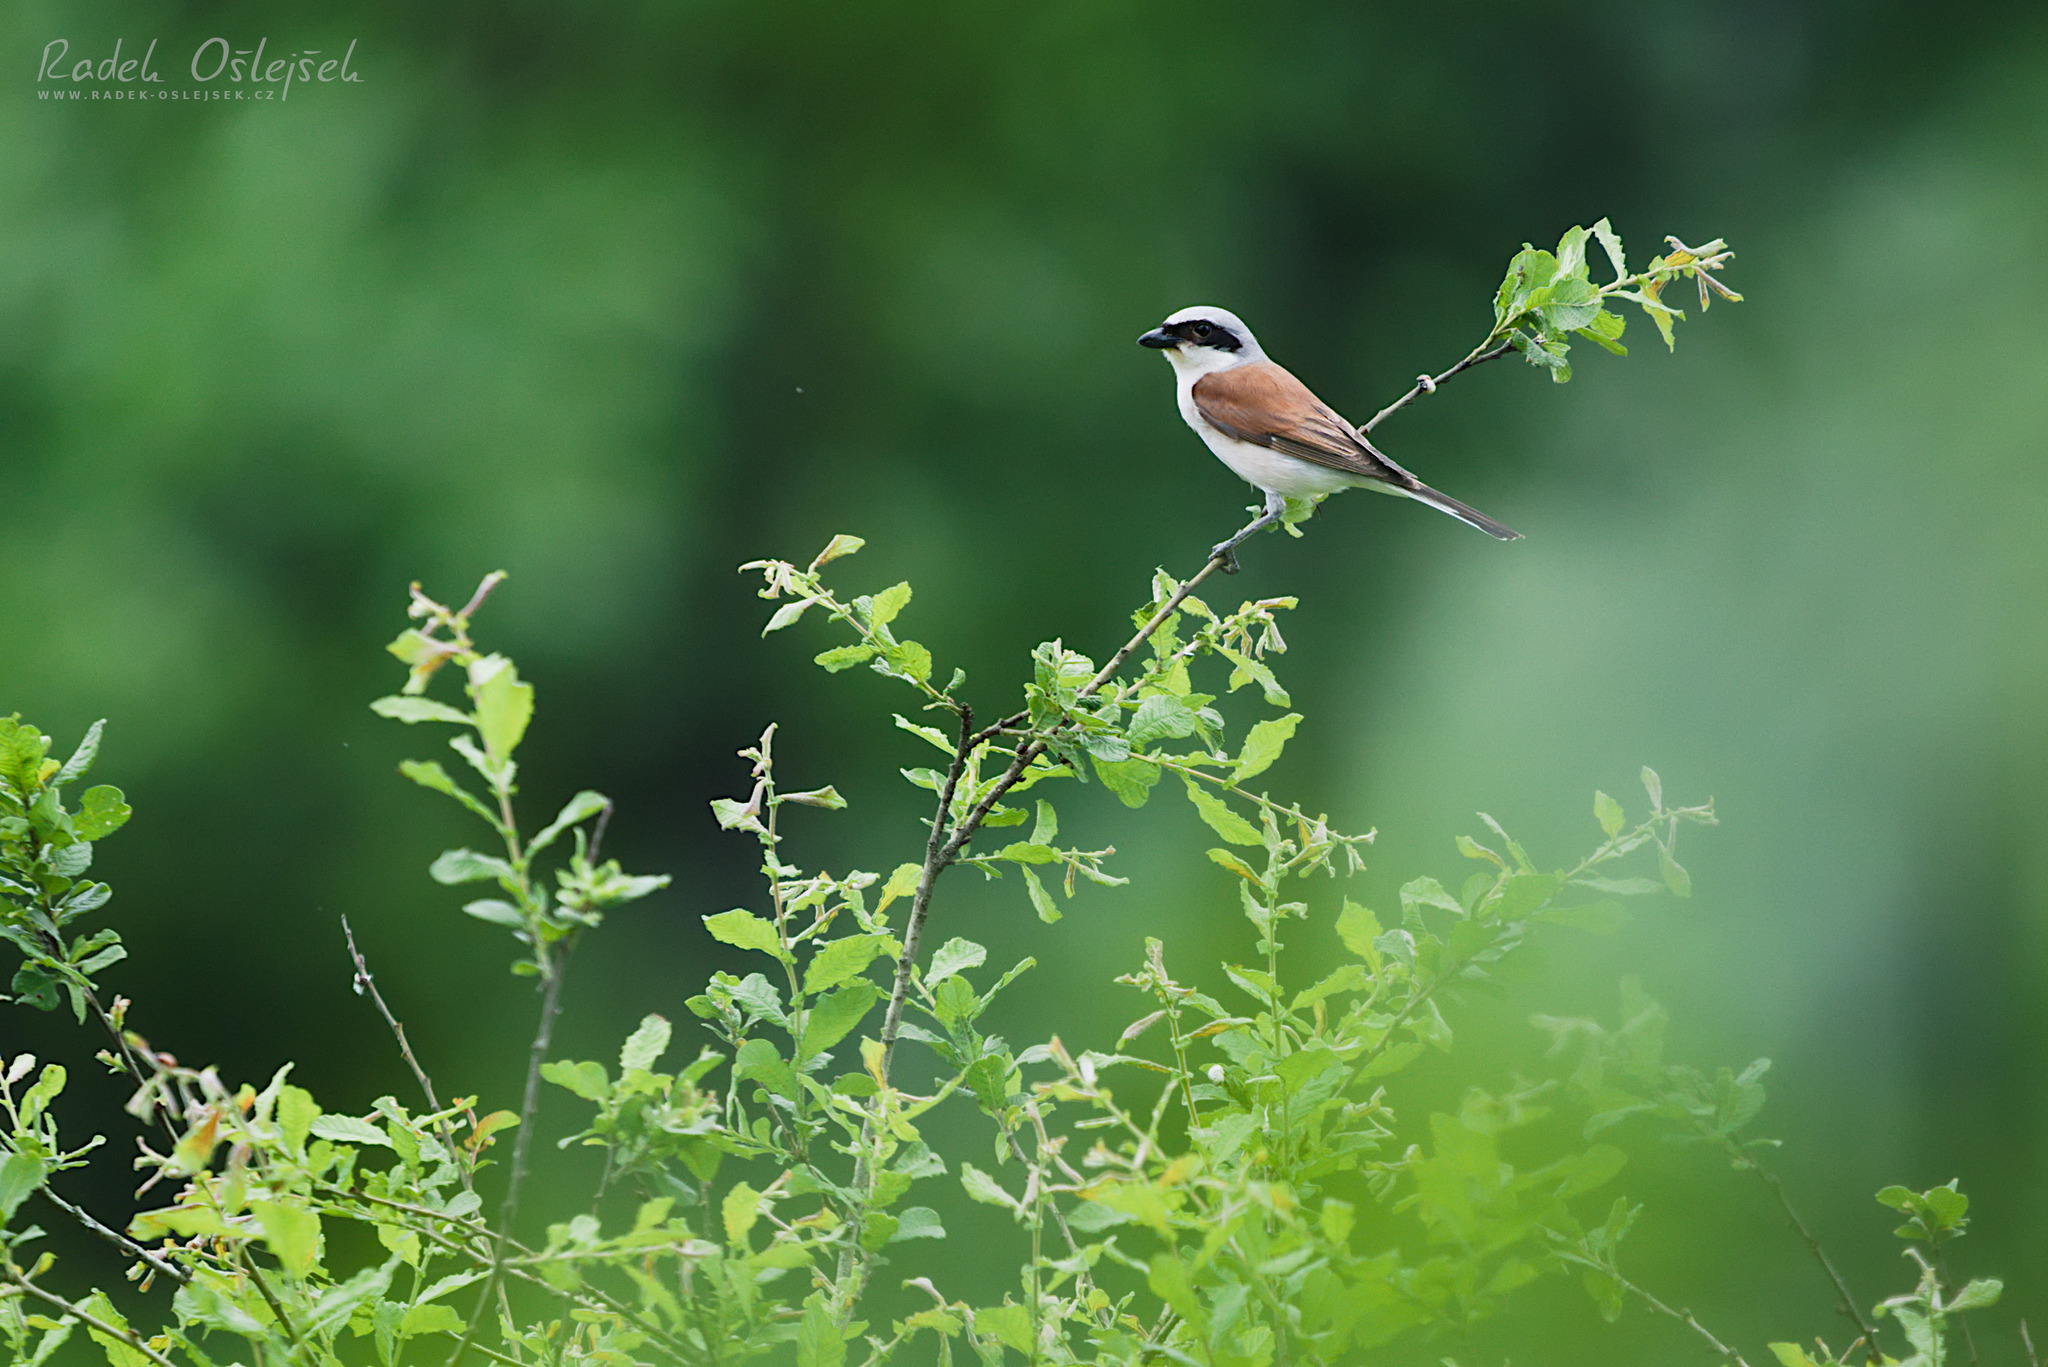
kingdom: Animalia
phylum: Chordata
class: Aves
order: Passeriformes
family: Laniidae
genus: Lanius
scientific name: Lanius collurio
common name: Red-backed shrike
